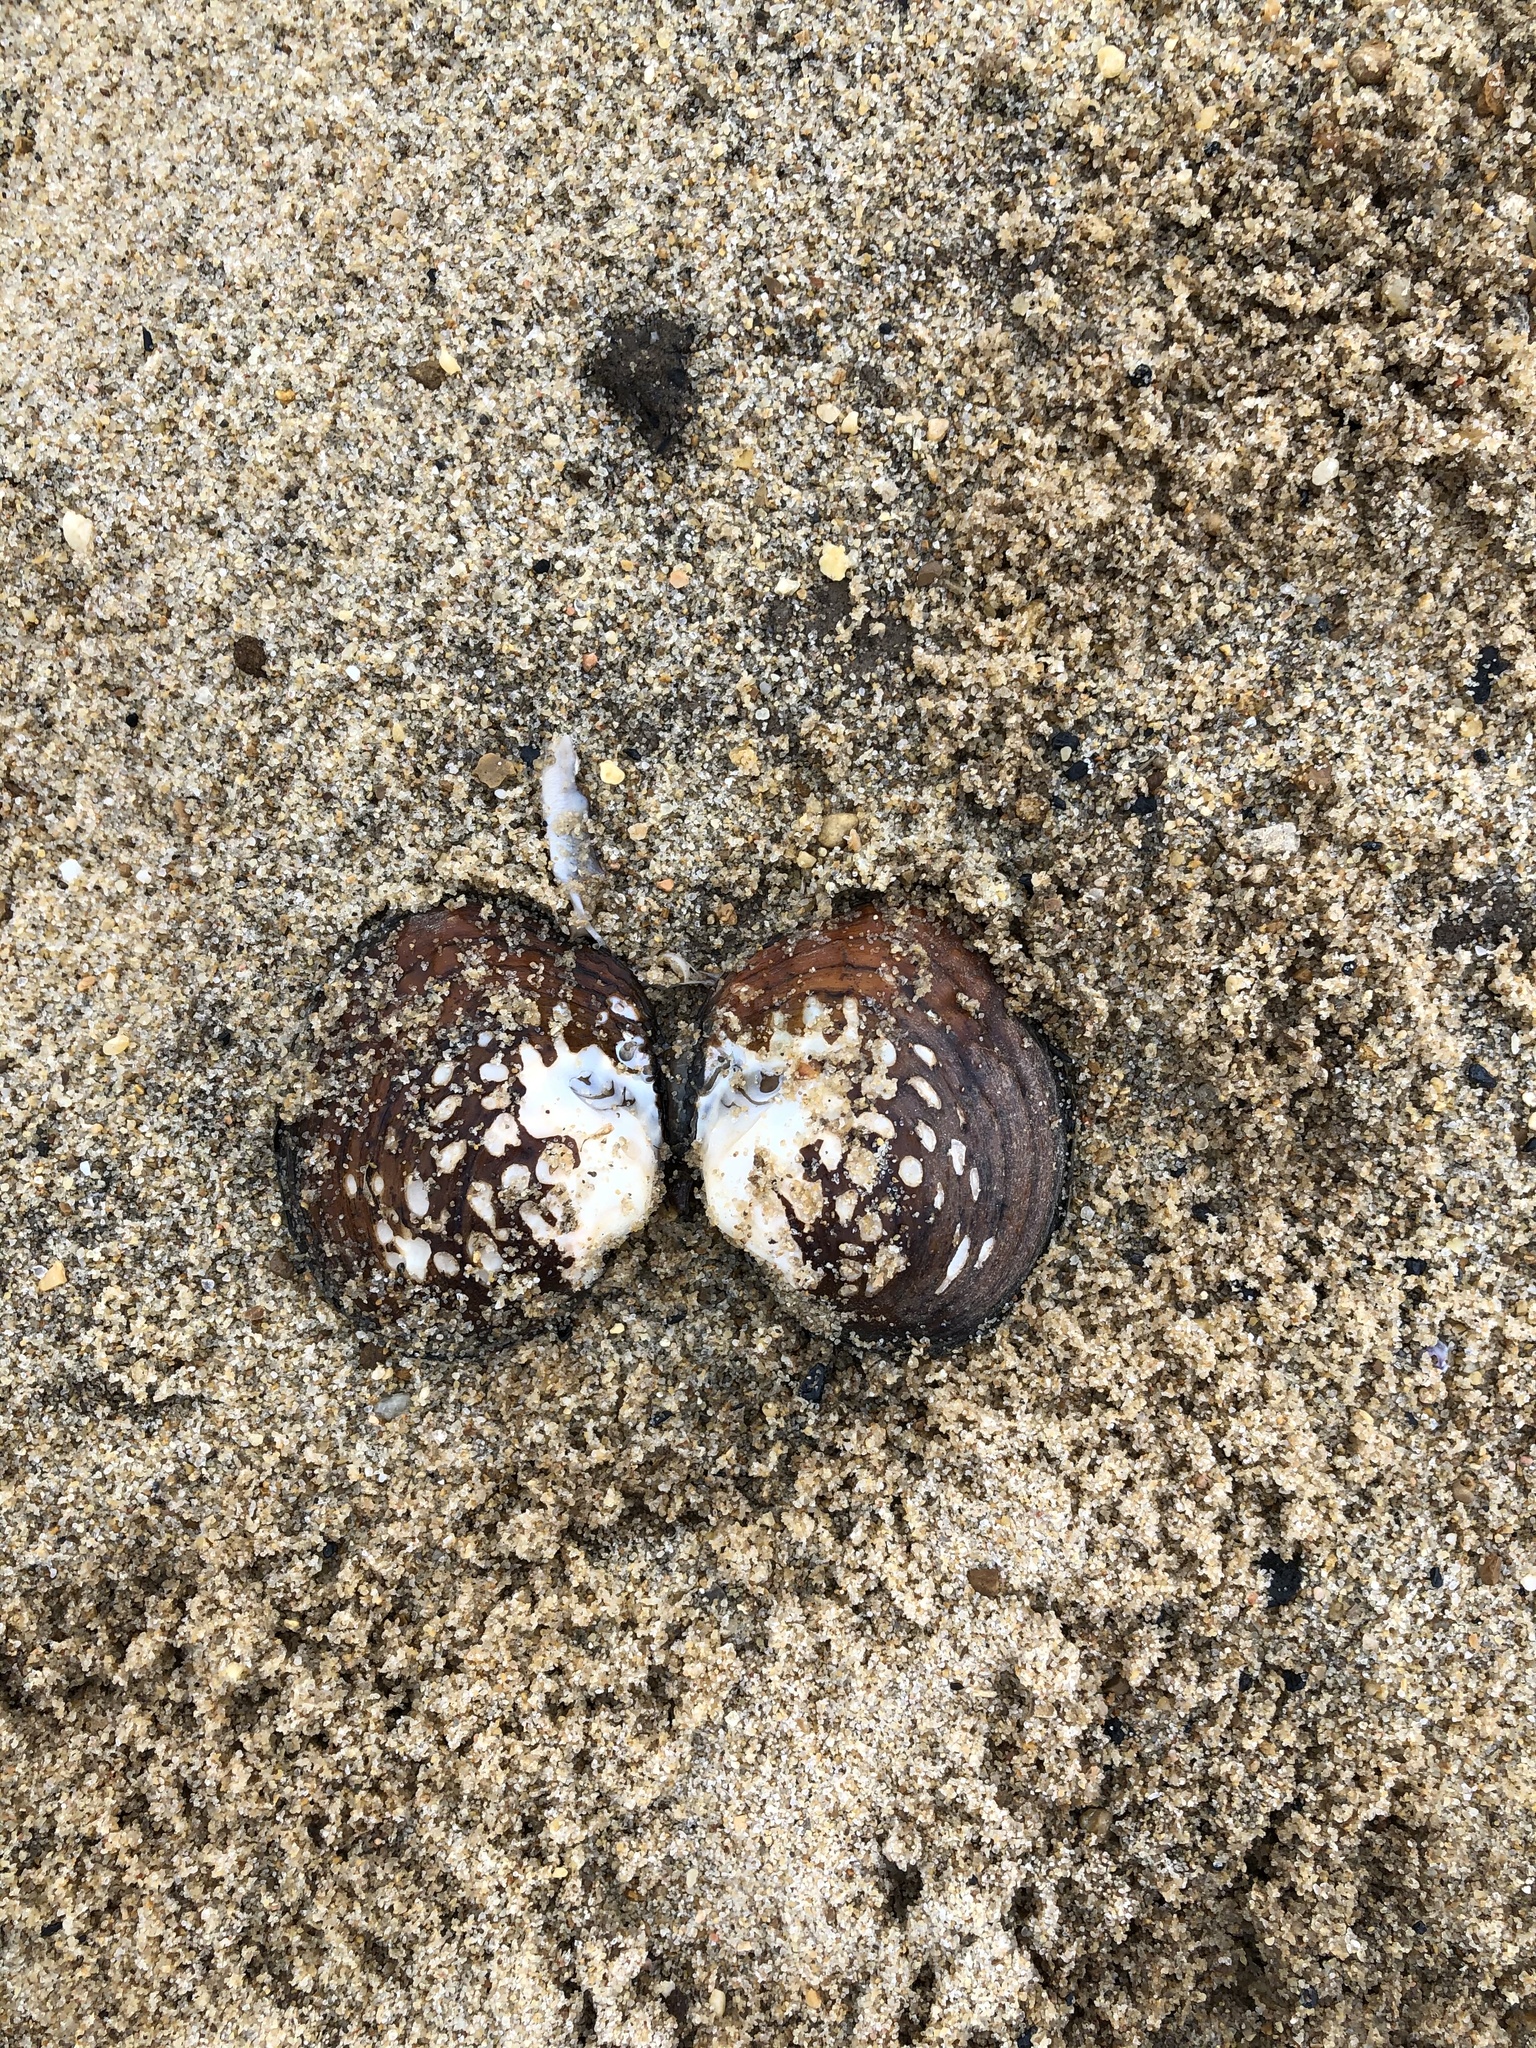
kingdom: Animalia
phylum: Mollusca
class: Bivalvia
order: Unionida
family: Unionidae
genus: Cyclonaias
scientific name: Cyclonaias kieneriana
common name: Coosa orb
